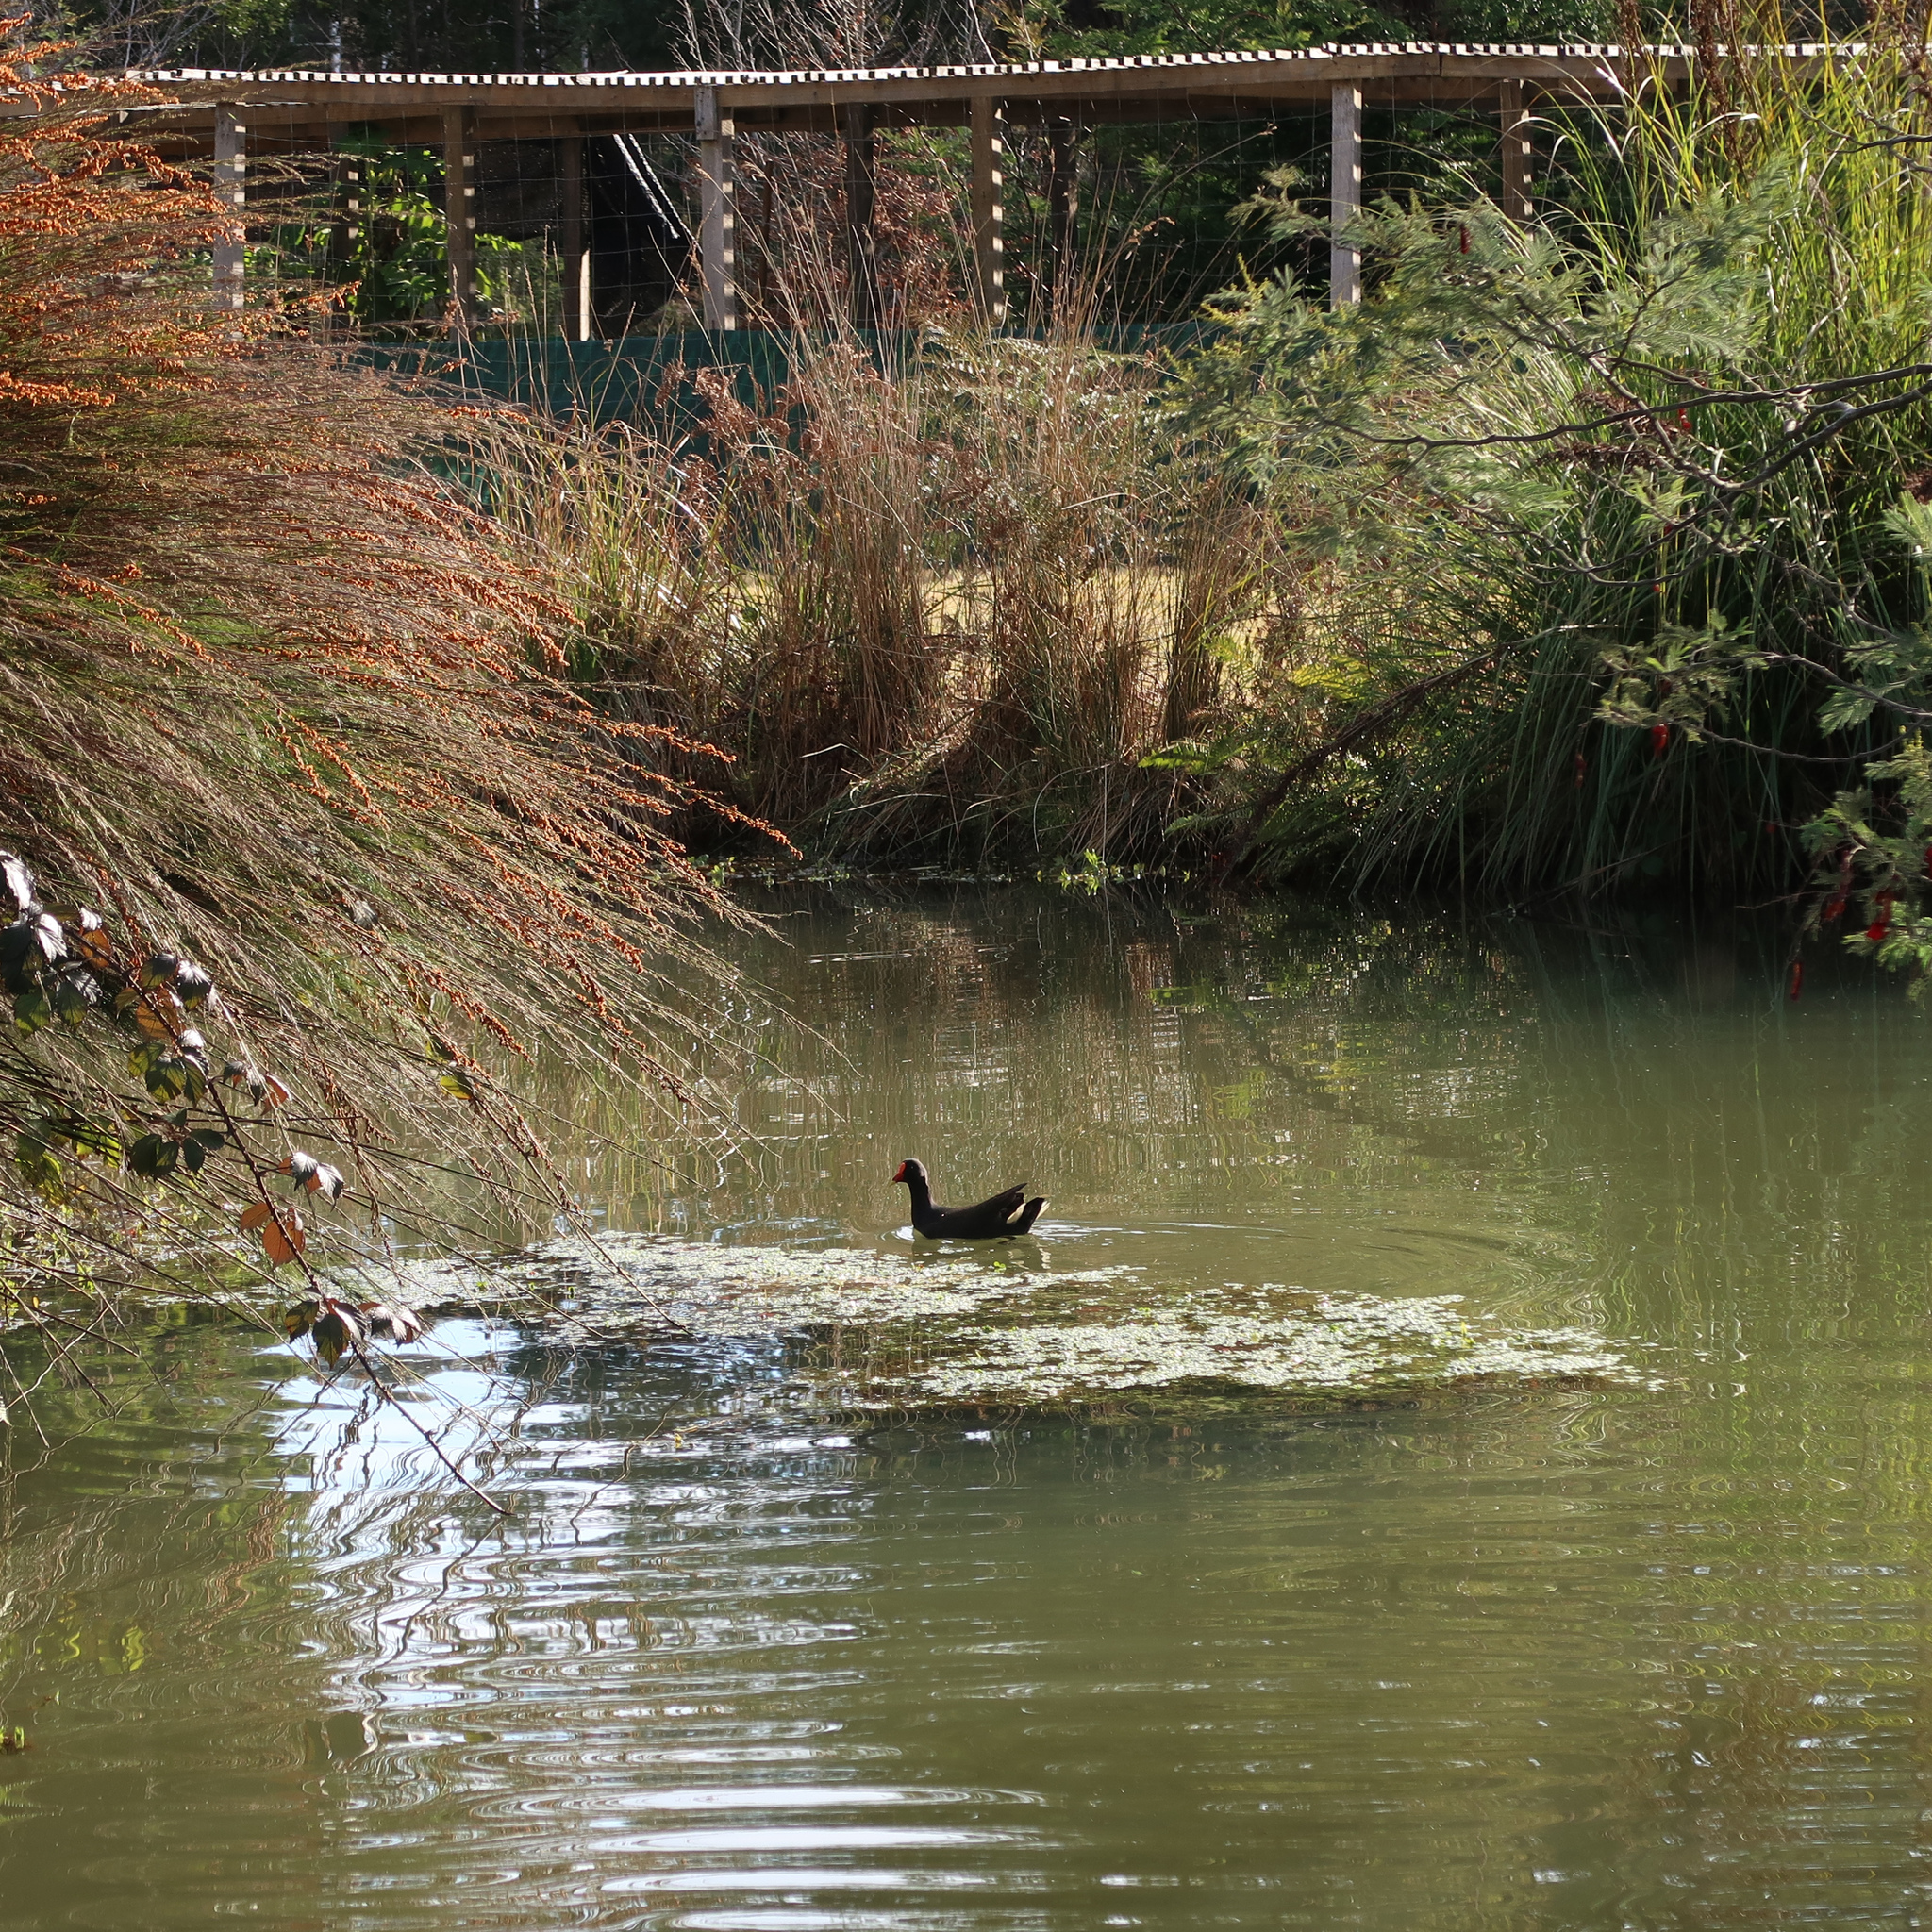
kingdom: Animalia
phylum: Chordata
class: Aves
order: Gruiformes
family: Rallidae
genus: Gallinula
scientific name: Gallinula tenebrosa
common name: Dusky moorhen
